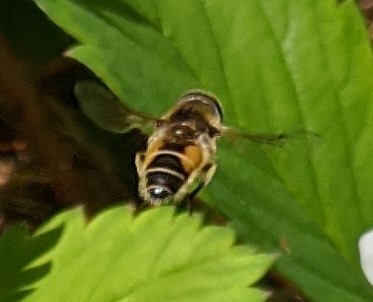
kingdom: Animalia
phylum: Arthropoda
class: Insecta
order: Diptera
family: Syrphidae
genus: Eristalis
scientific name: Eristalis arbustorum
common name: Hover fly
